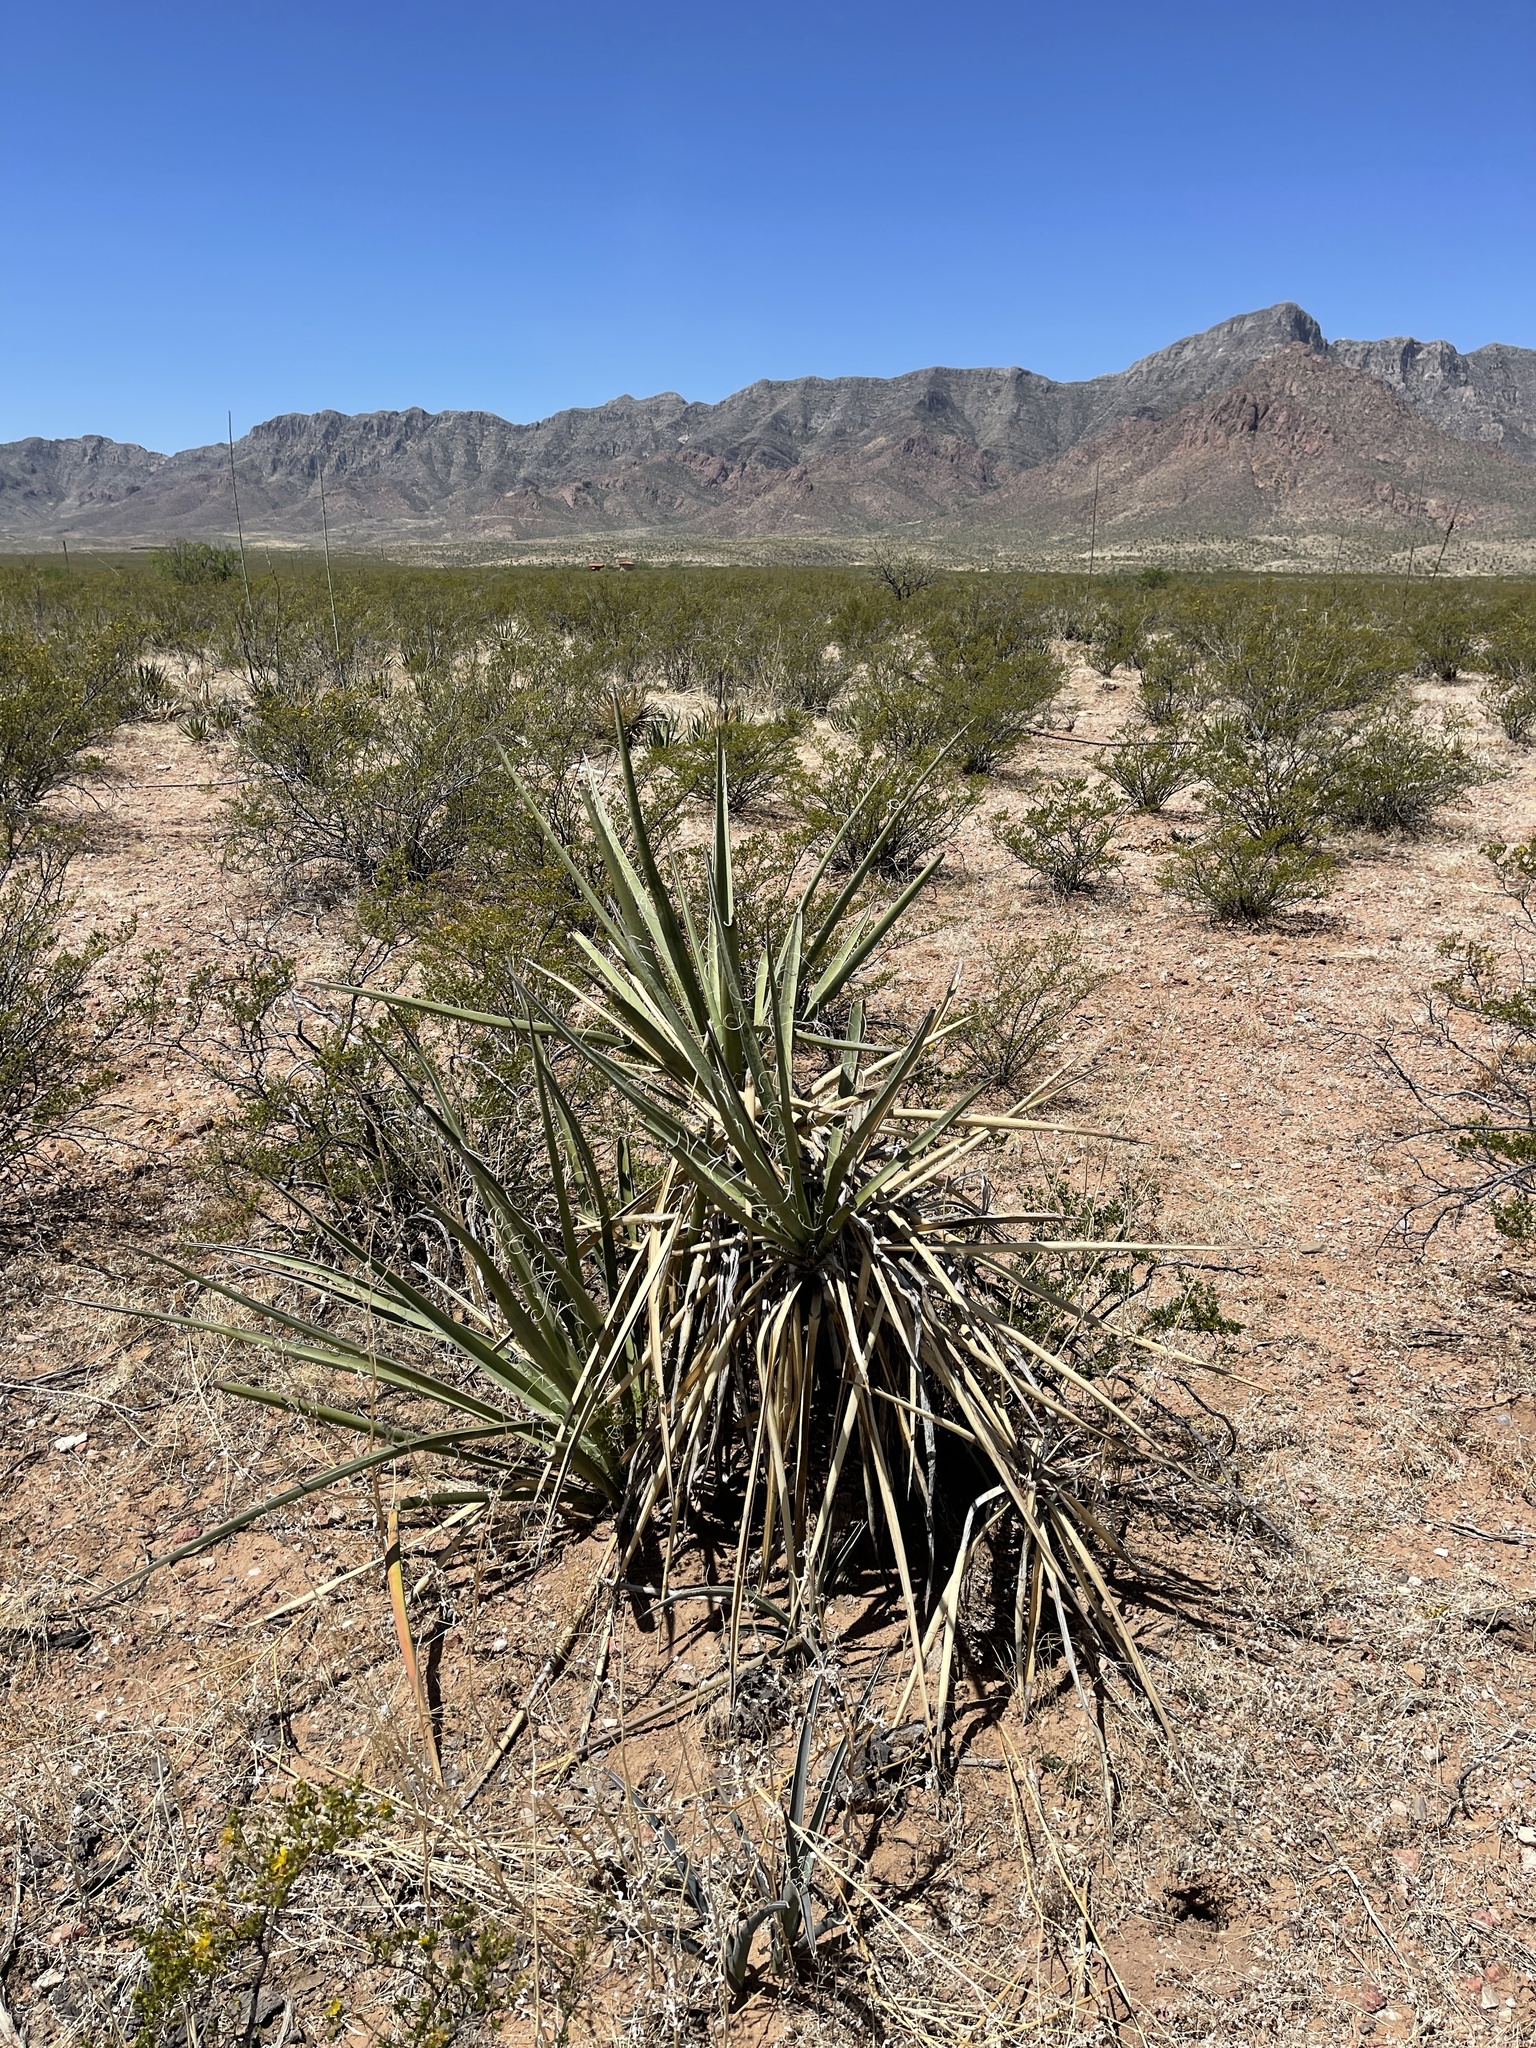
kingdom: Plantae
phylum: Tracheophyta
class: Liliopsida
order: Asparagales
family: Asparagaceae
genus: Yucca
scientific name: Yucca baccata
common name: Banana yucca
